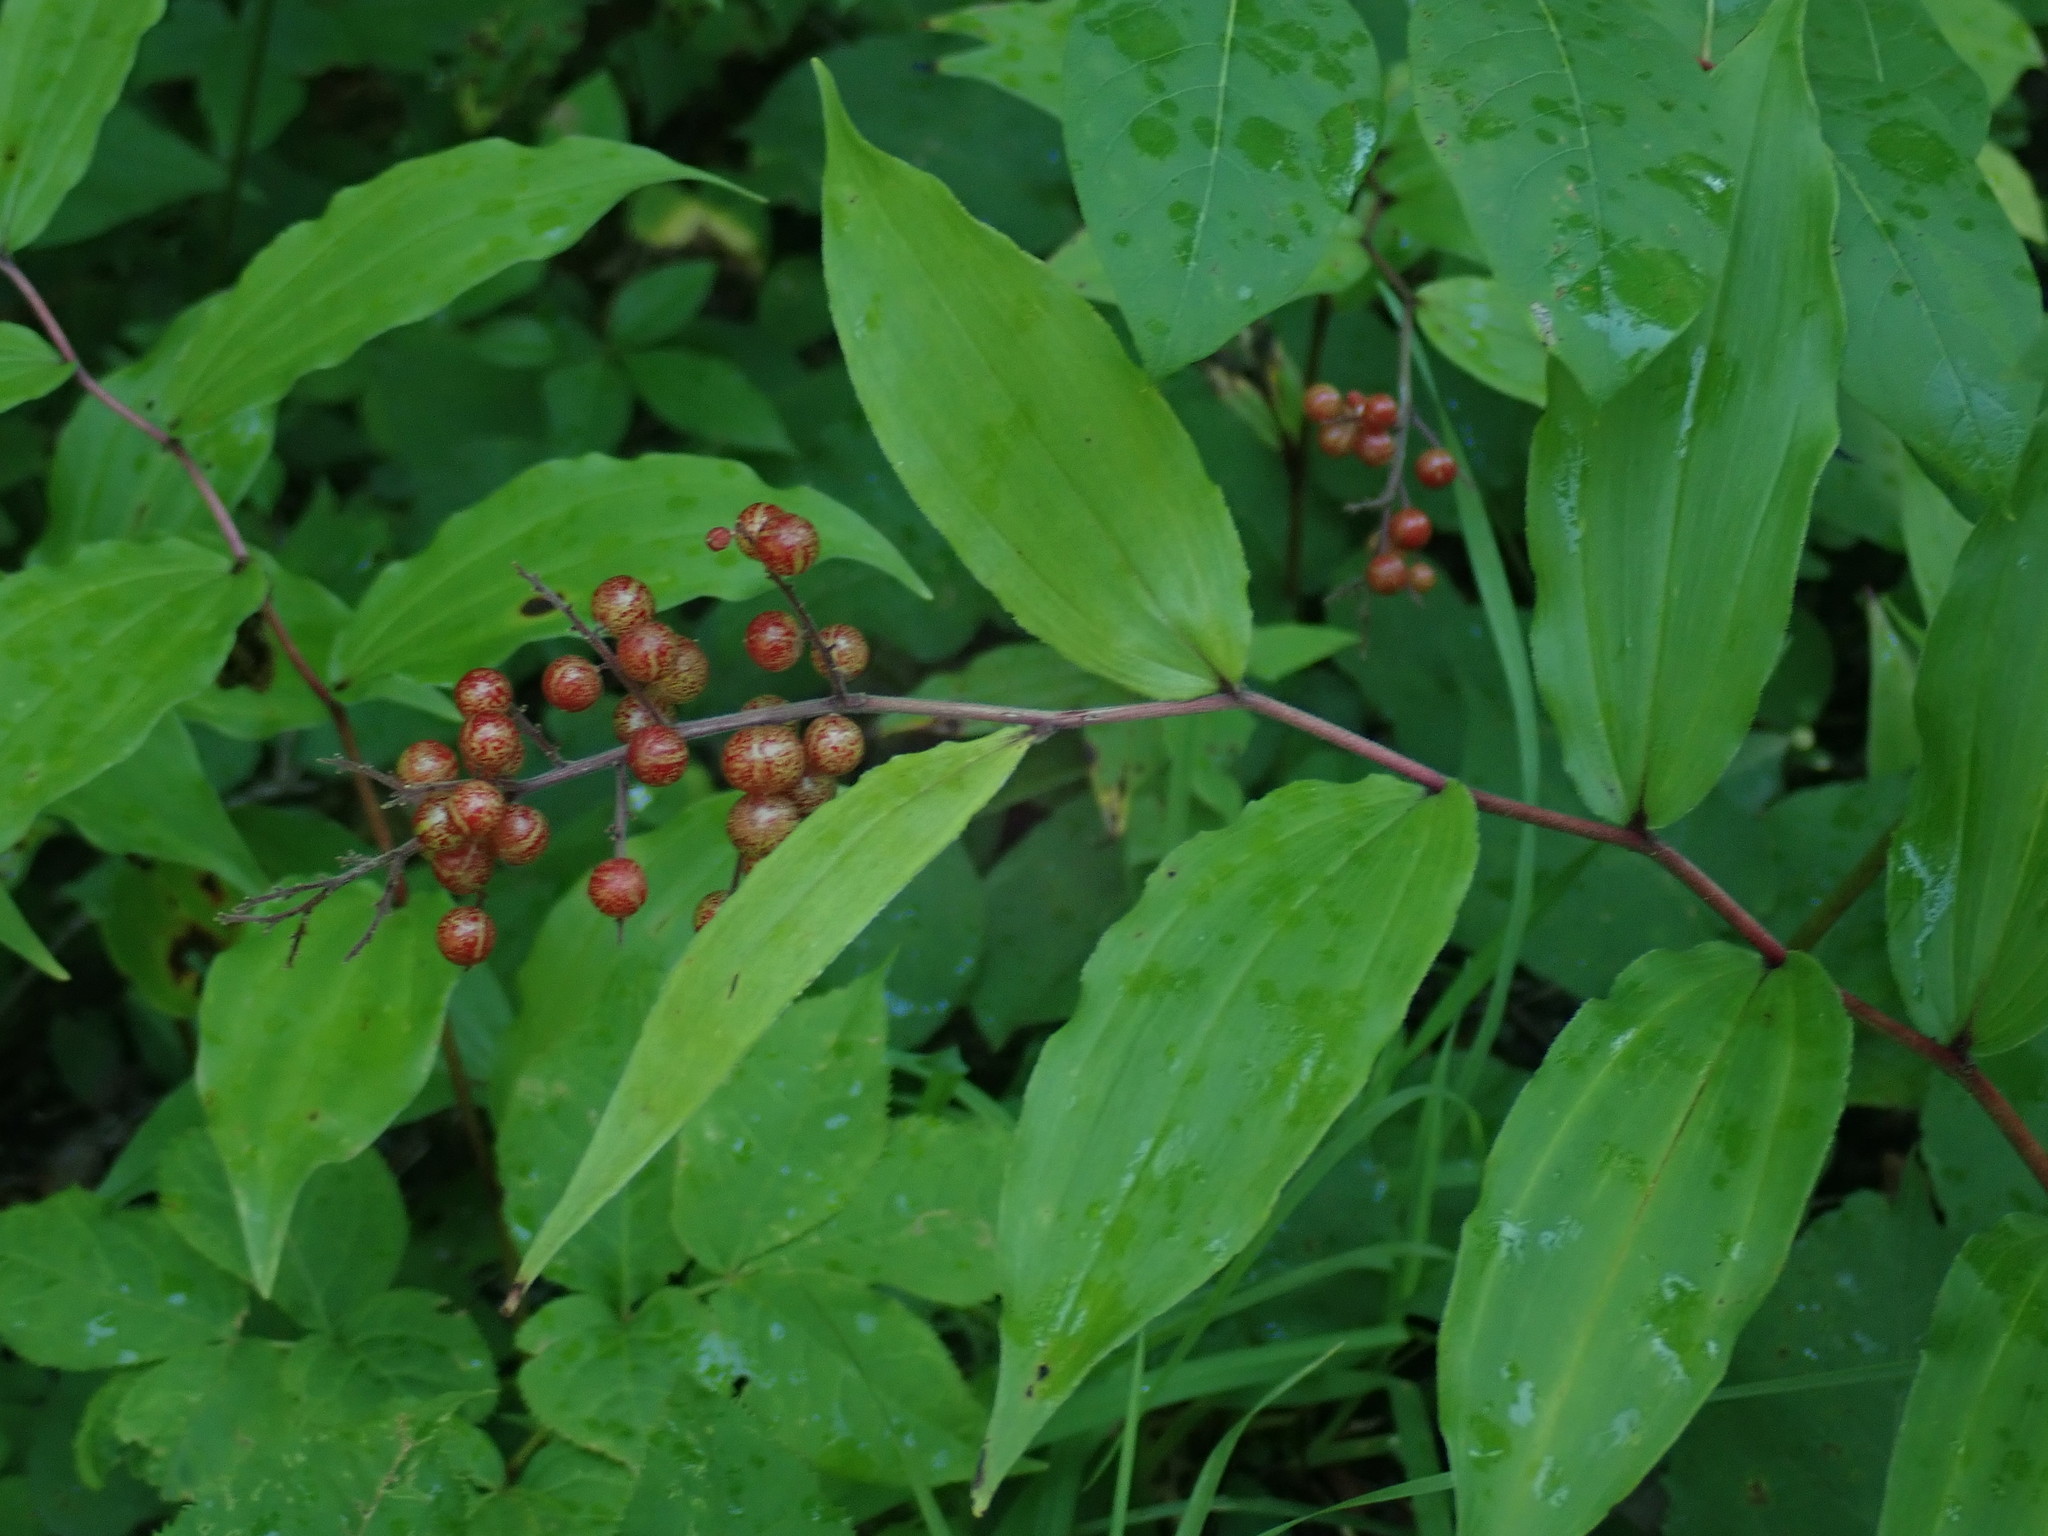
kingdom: Plantae
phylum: Tracheophyta
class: Liliopsida
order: Asparagales
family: Asparagaceae
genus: Maianthemum
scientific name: Maianthemum racemosum
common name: False spikenard
